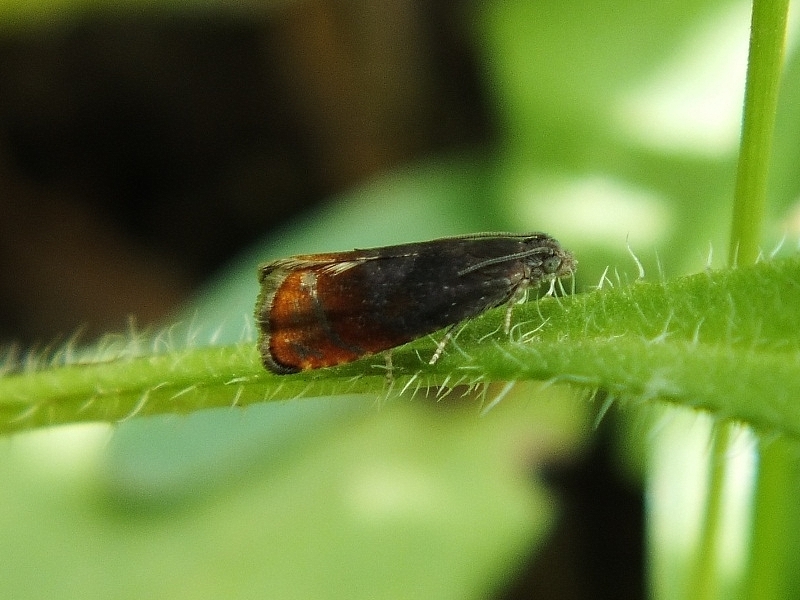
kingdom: Animalia
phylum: Arthropoda
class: Insecta
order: Lepidoptera
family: Tortricidae
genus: Pammene
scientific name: Pammene rhediella
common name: Fruitlet-mining tortrix
